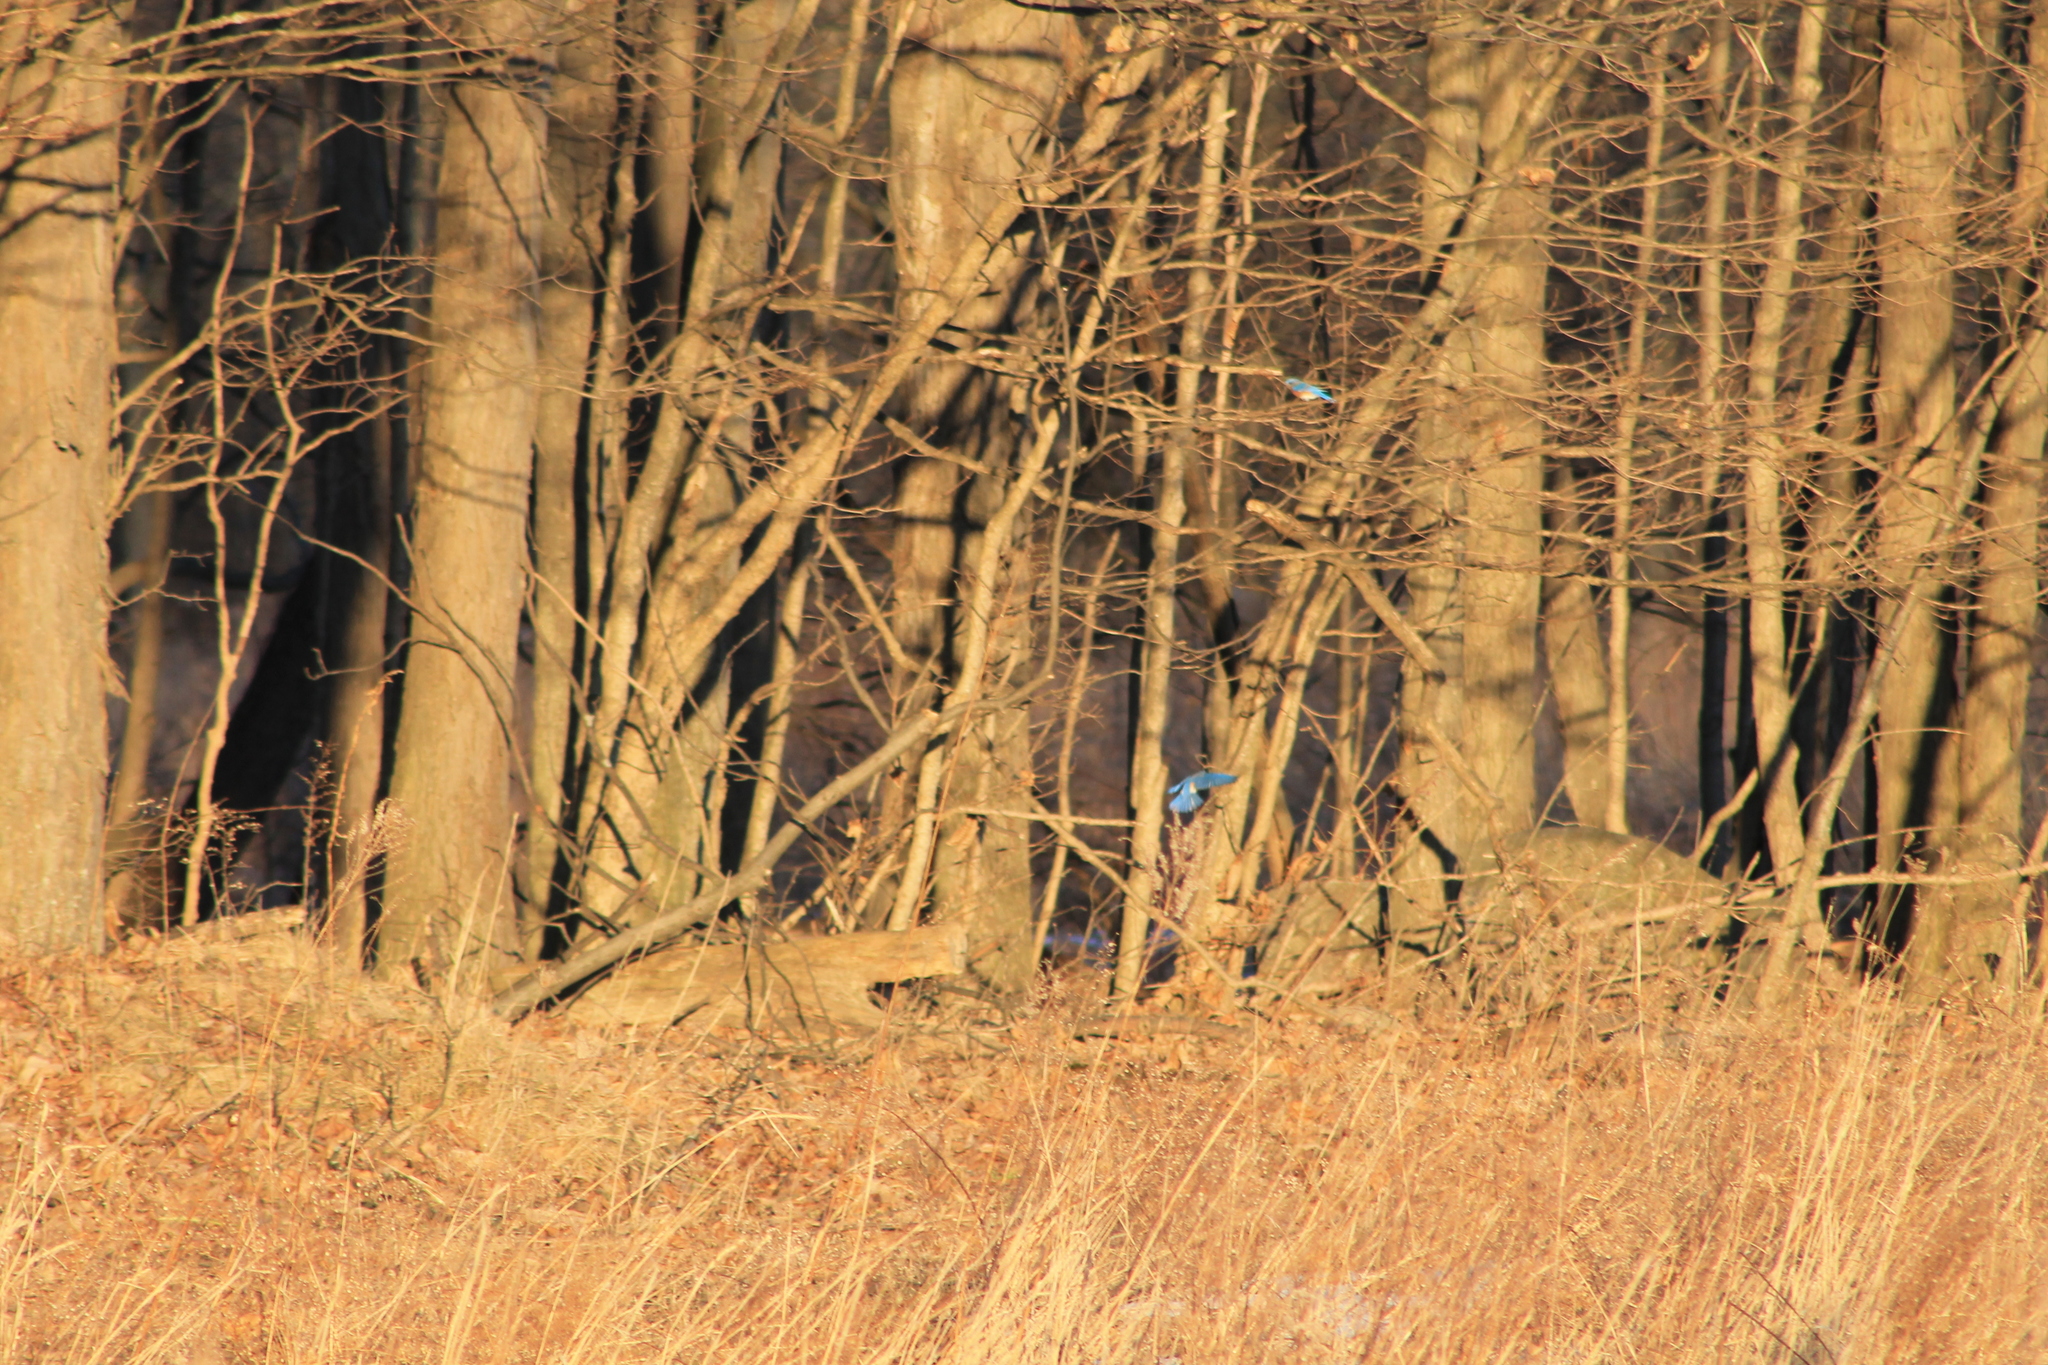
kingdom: Animalia
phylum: Chordata
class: Aves
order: Passeriformes
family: Turdidae
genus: Sialia
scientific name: Sialia sialis
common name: Eastern bluebird
